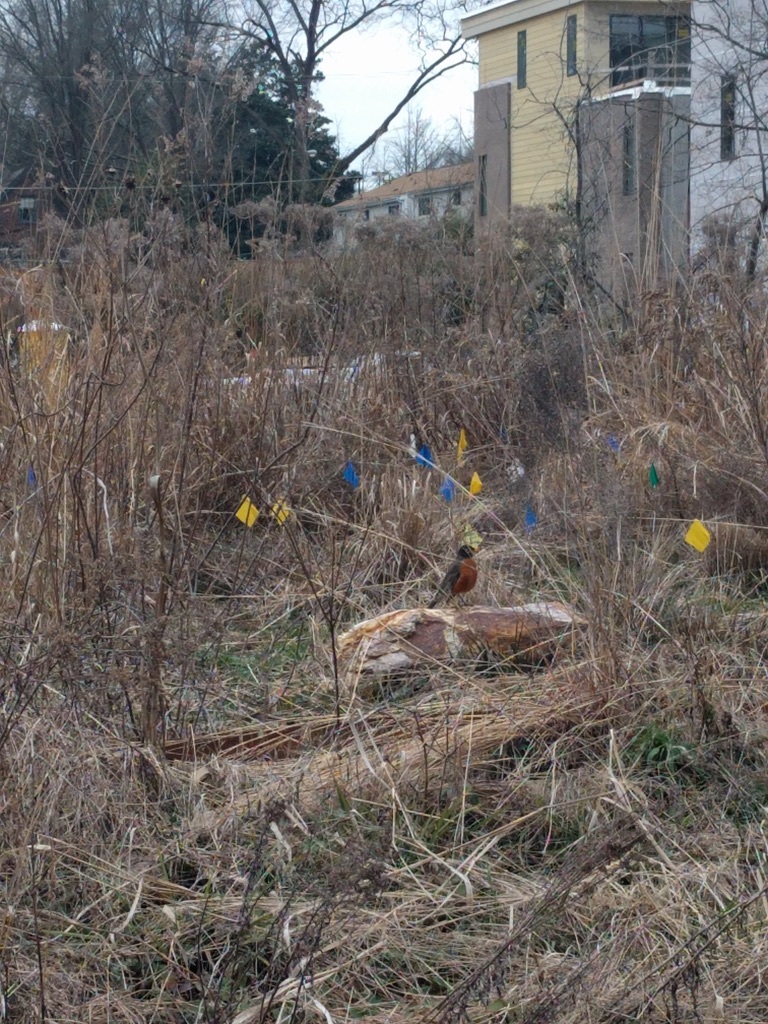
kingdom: Animalia
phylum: Chordata
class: Aves
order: Passeriformes
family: Turdidae
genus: Turdus
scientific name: Turdus migratorius
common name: American robin
